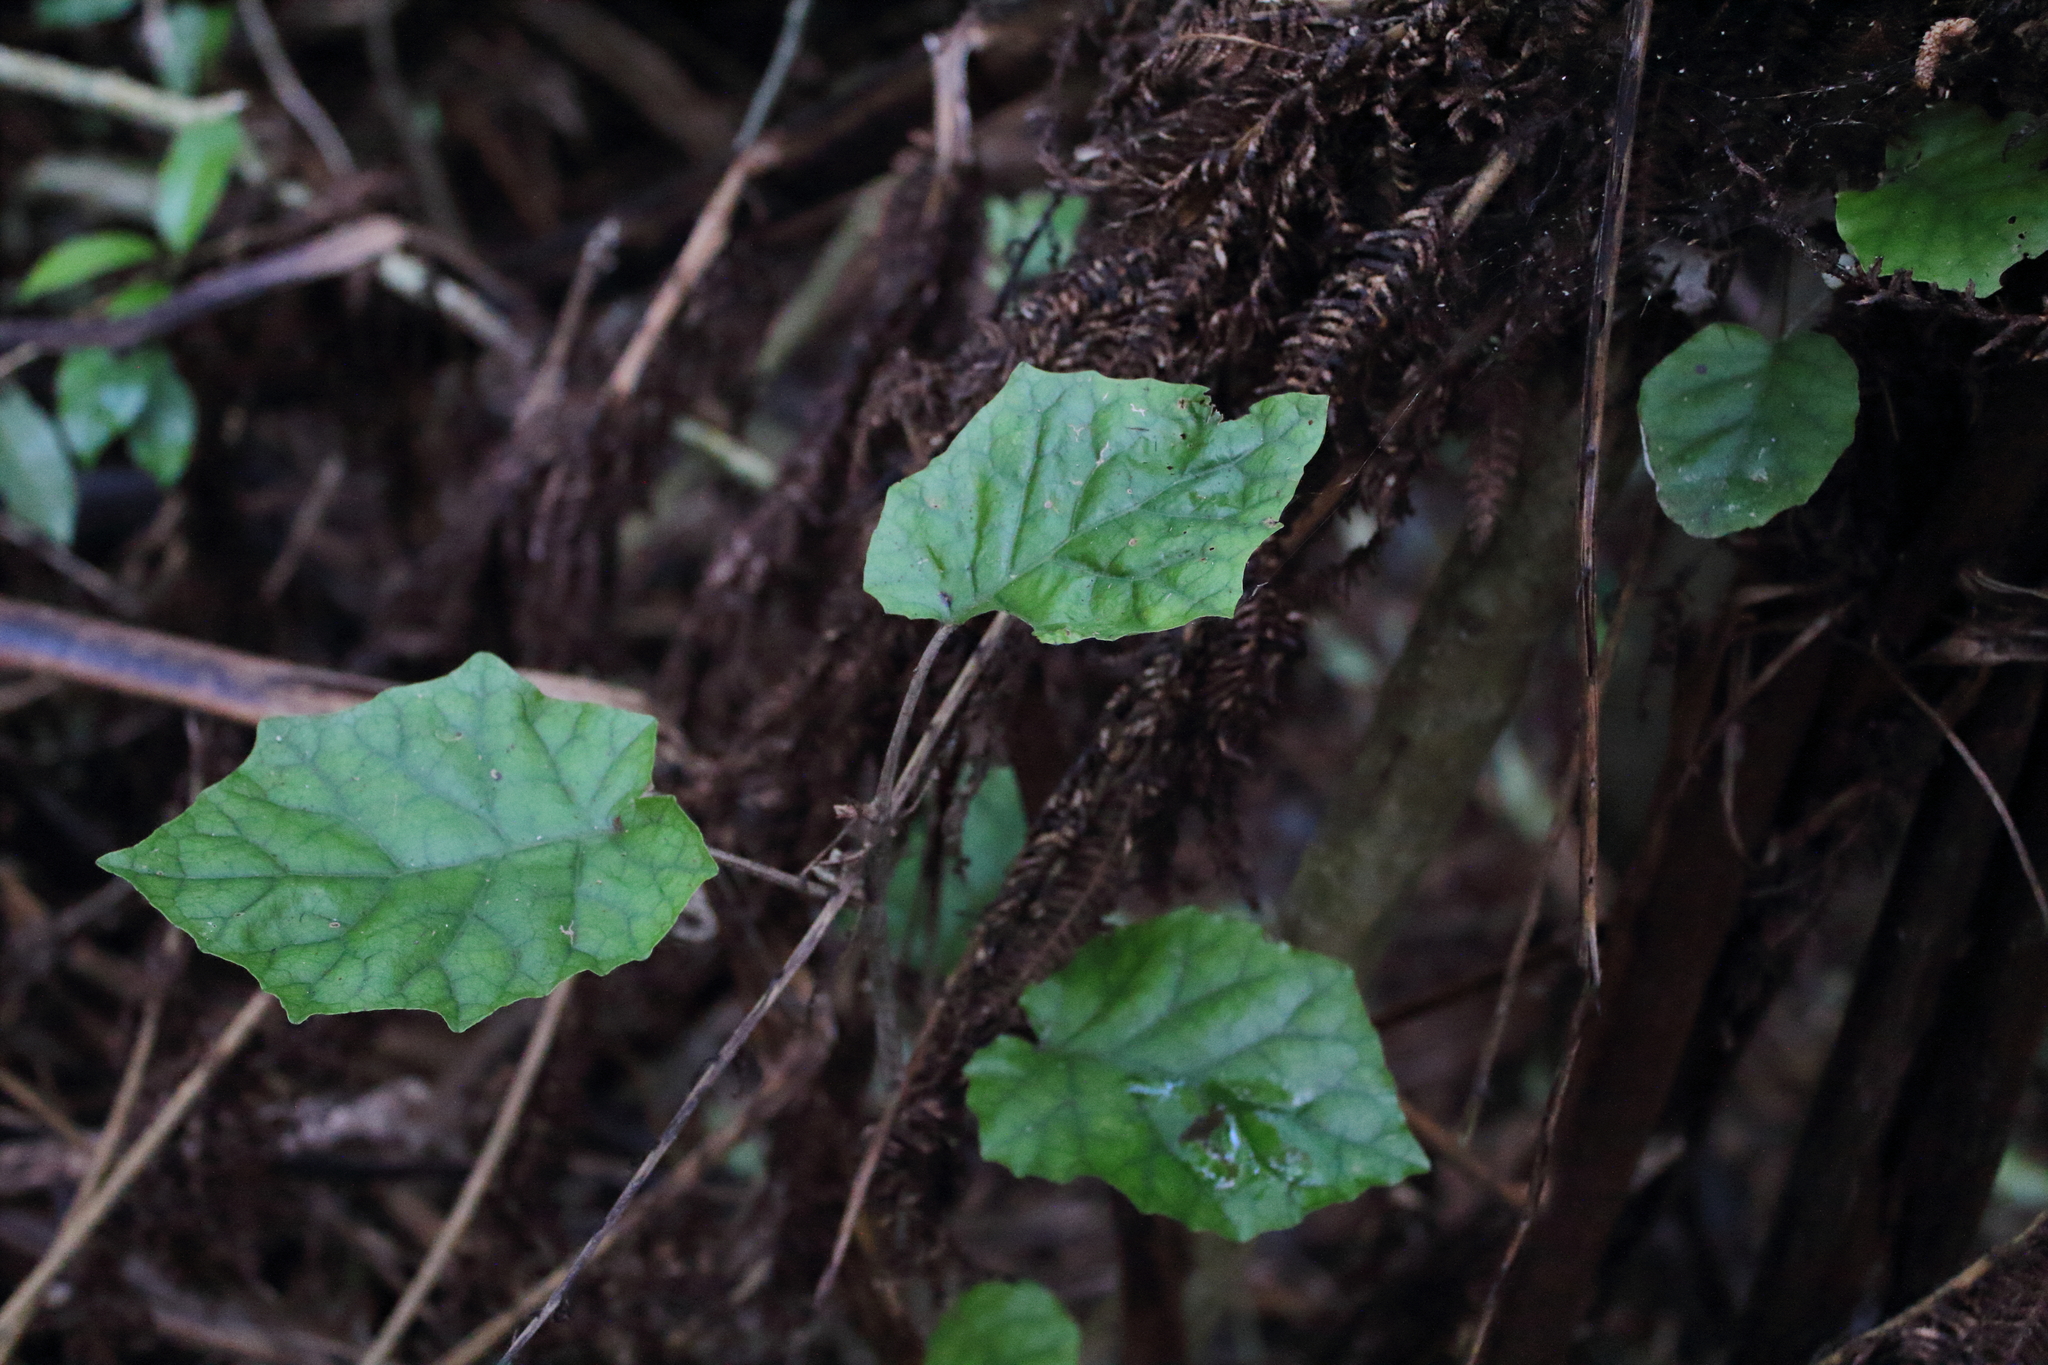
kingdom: Plantae
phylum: Tracheophyta
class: Magnoliopsida
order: Asterales
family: Asteraceae
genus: Brachyglottis
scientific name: Brachyglottis repanda
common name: Hedge ragwort
